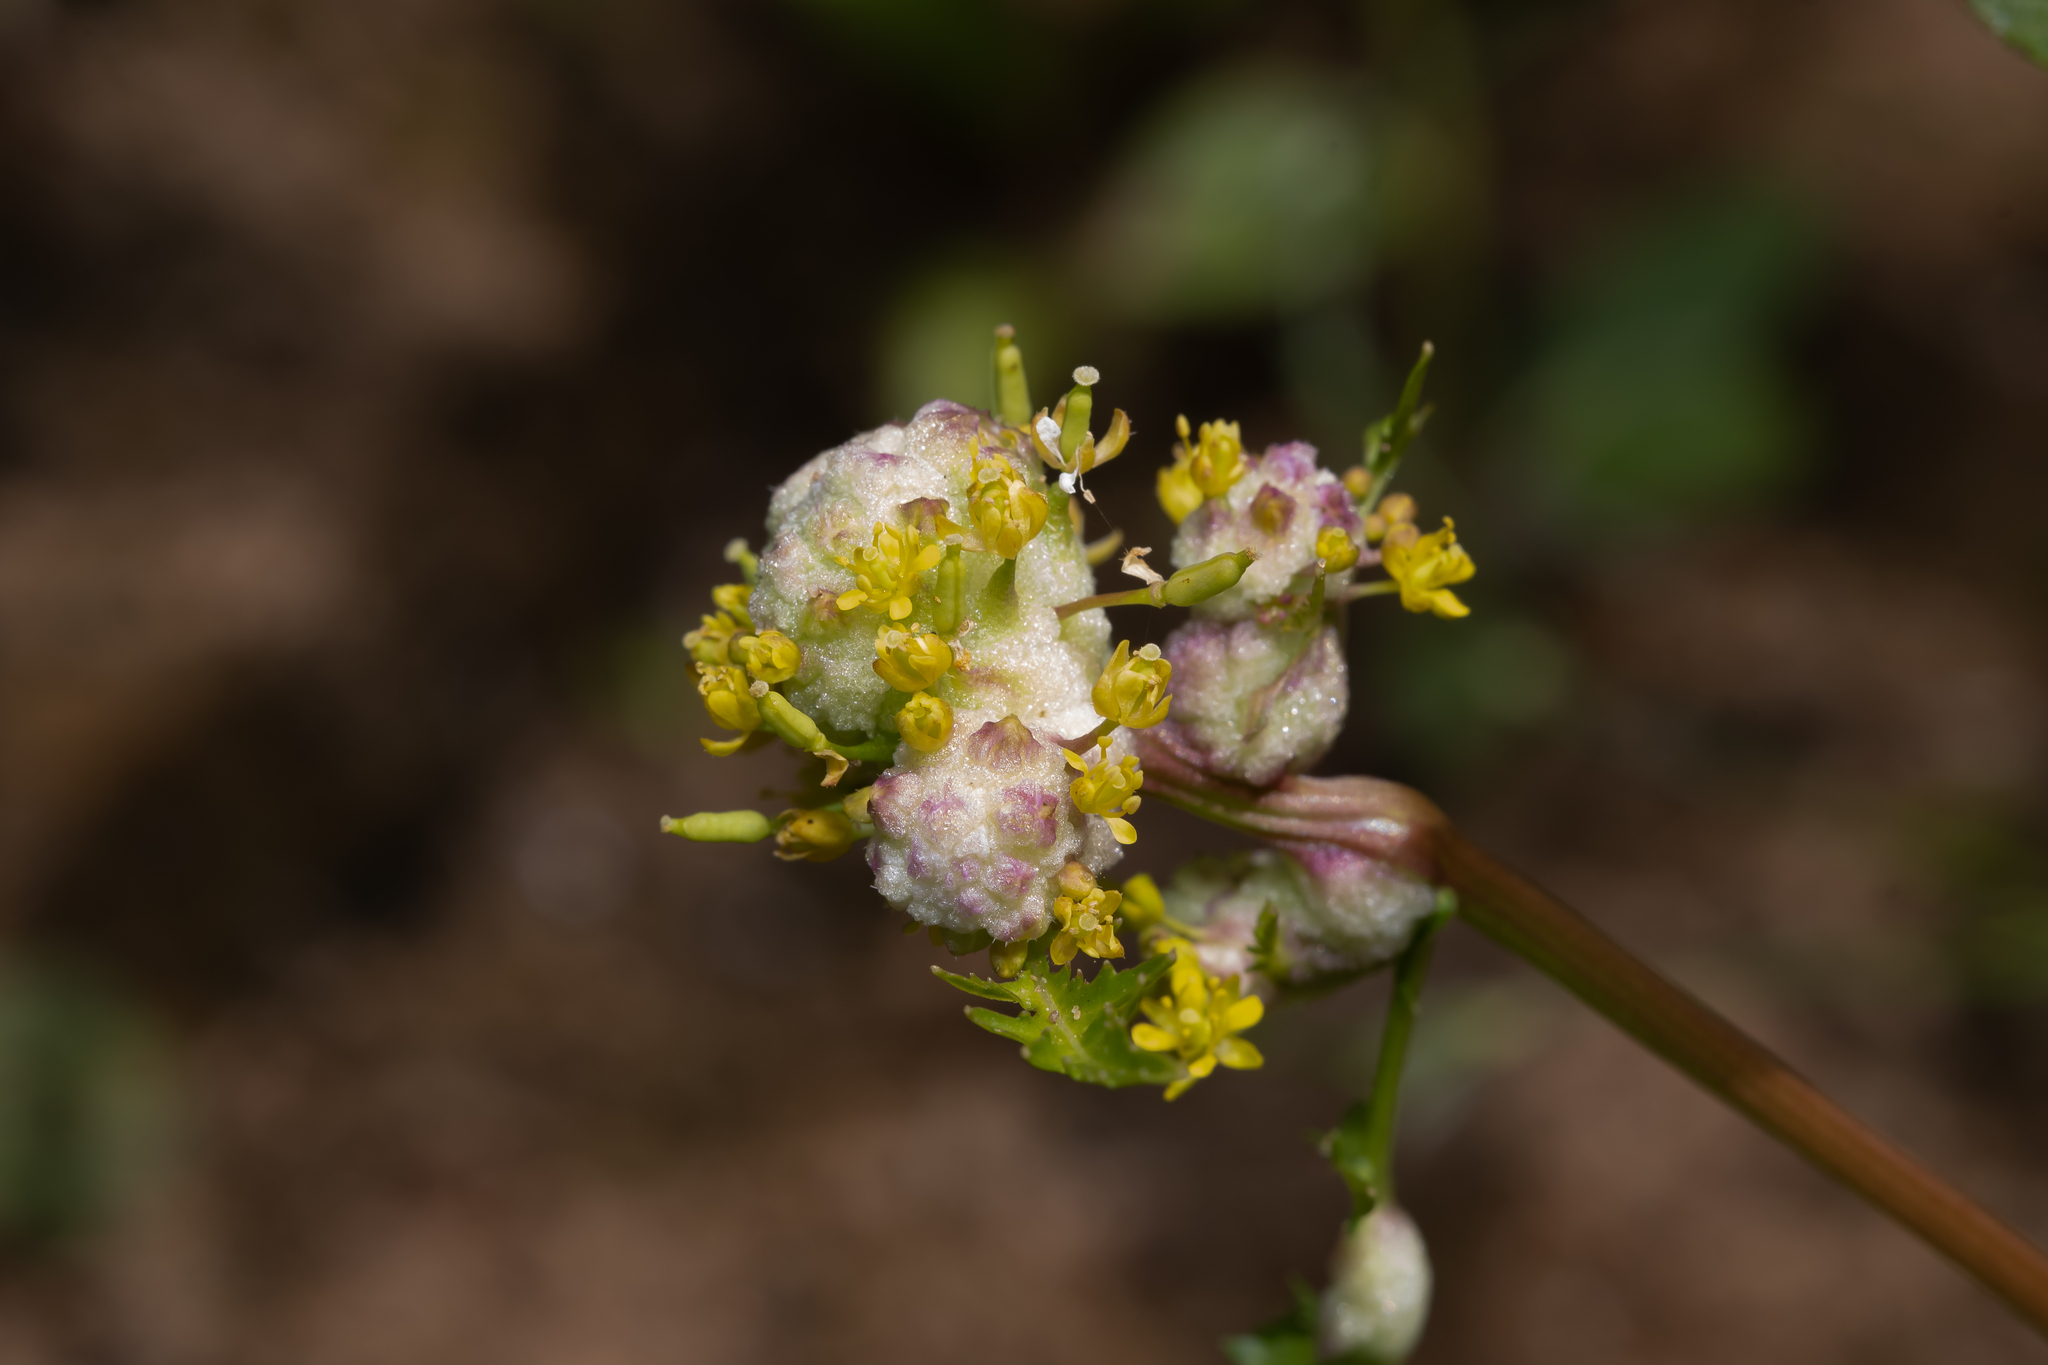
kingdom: Animalia
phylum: Arthropoda
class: Insecta
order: Diptera
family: Cecidomyiidae
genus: Dasineura
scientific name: Dasineura sisymbrii
